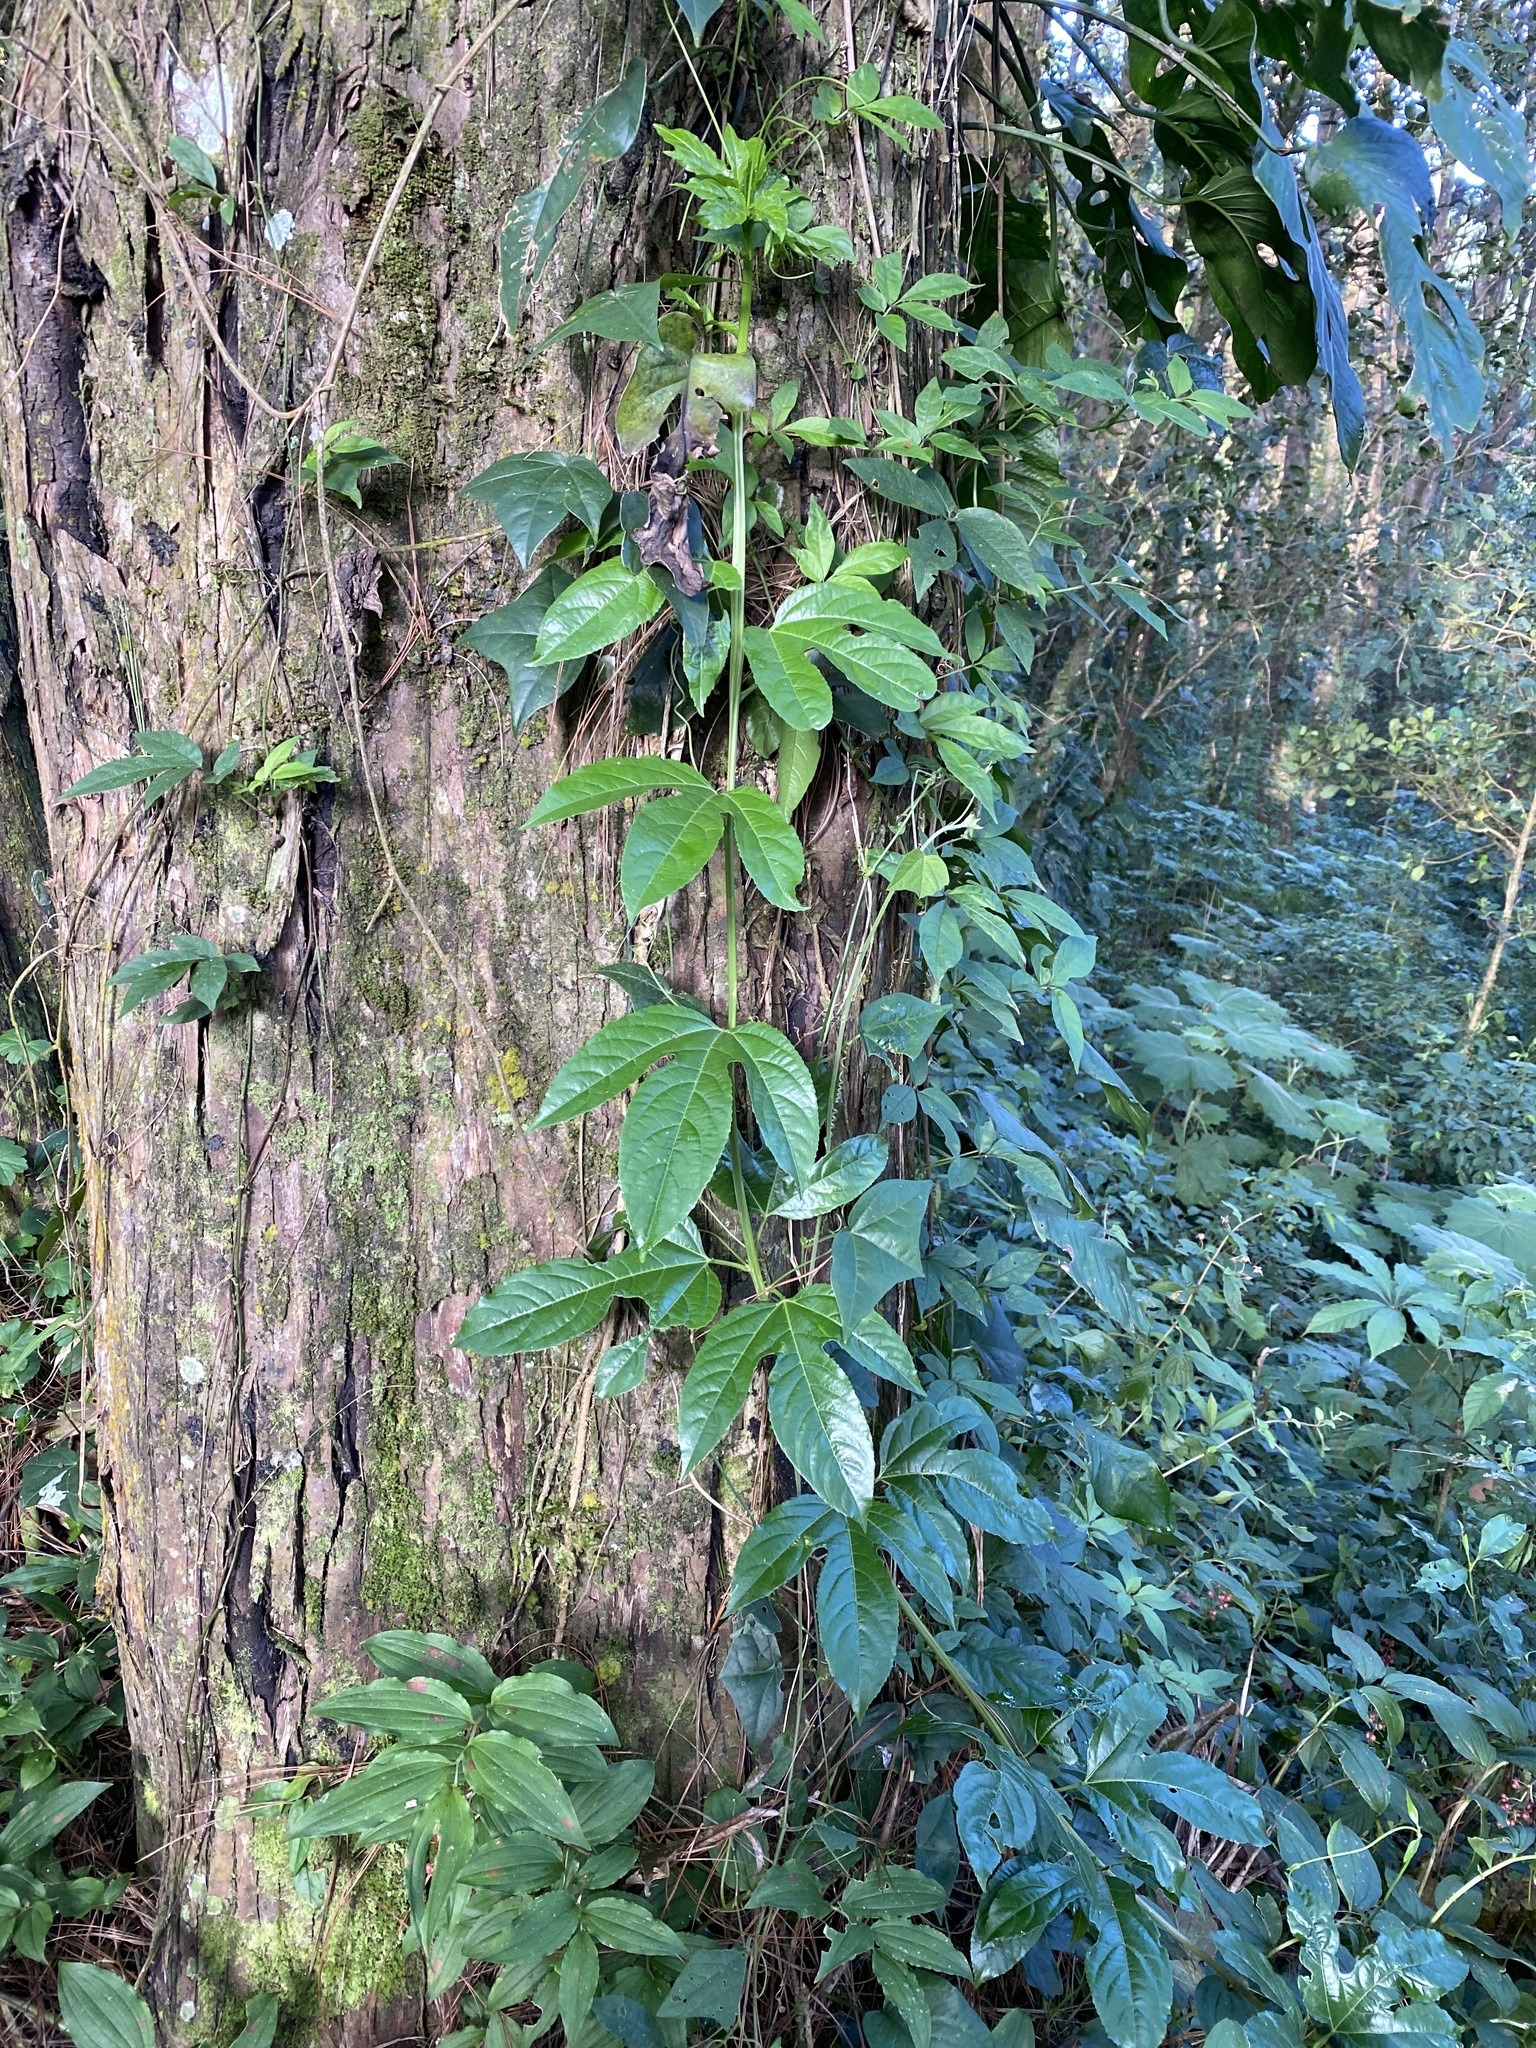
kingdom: Plantae
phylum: Tracheophyta
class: Magnoliopsida
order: Malpighiales
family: Passifloraceae
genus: Passiflora
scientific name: Passiflora edulis
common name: Purple granadilla
